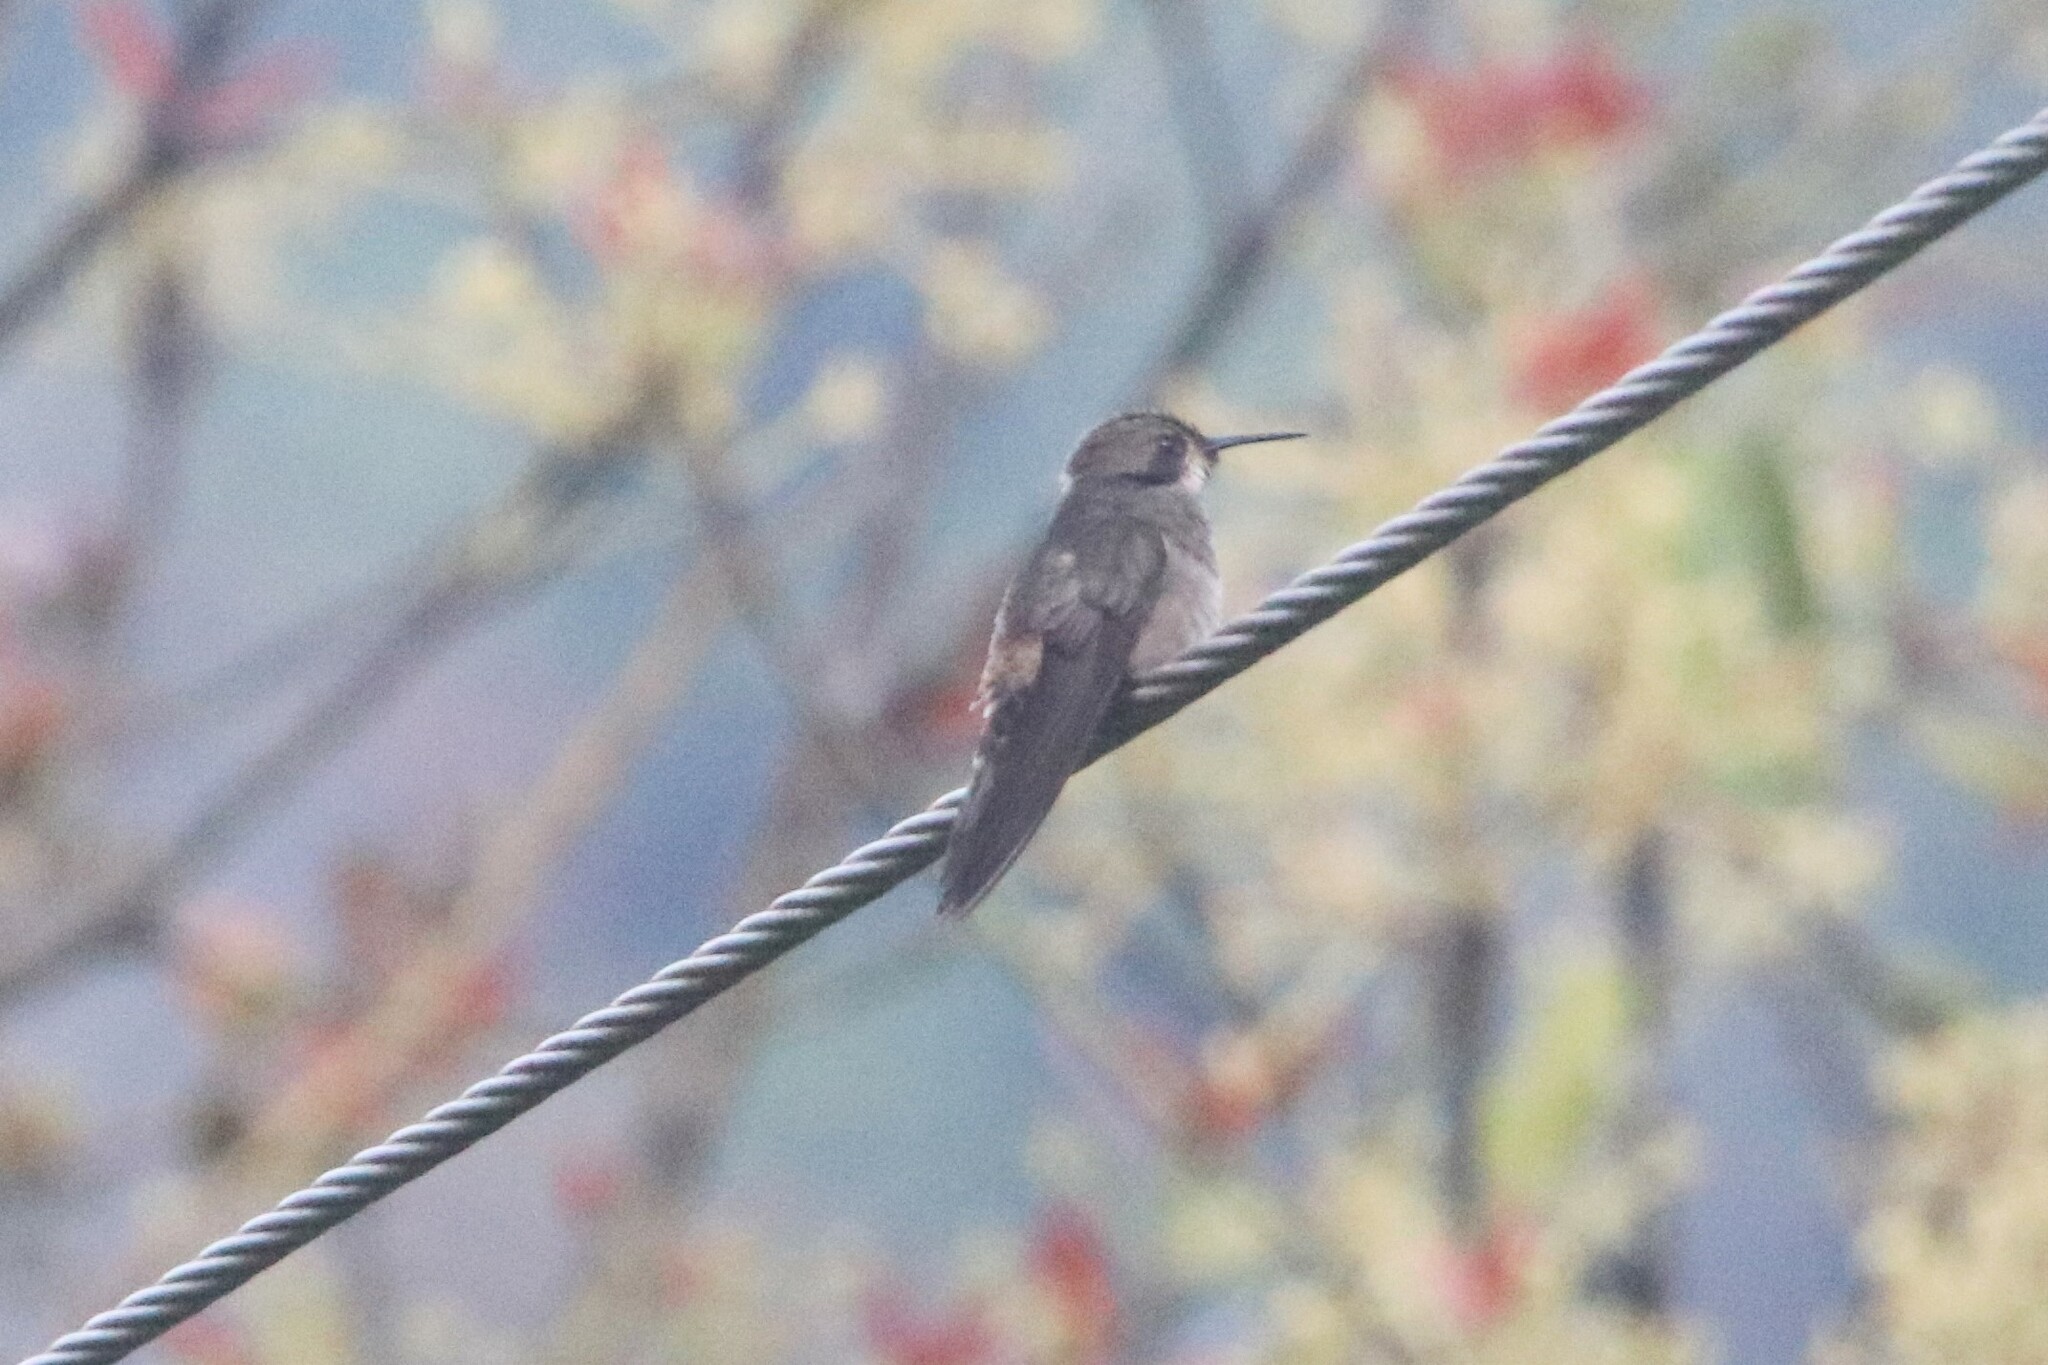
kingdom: Animalia
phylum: Chordata
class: Aves
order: Apodiformes
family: Trochilidae
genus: Colibri
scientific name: Colibri delphinae
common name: Brown violetear
